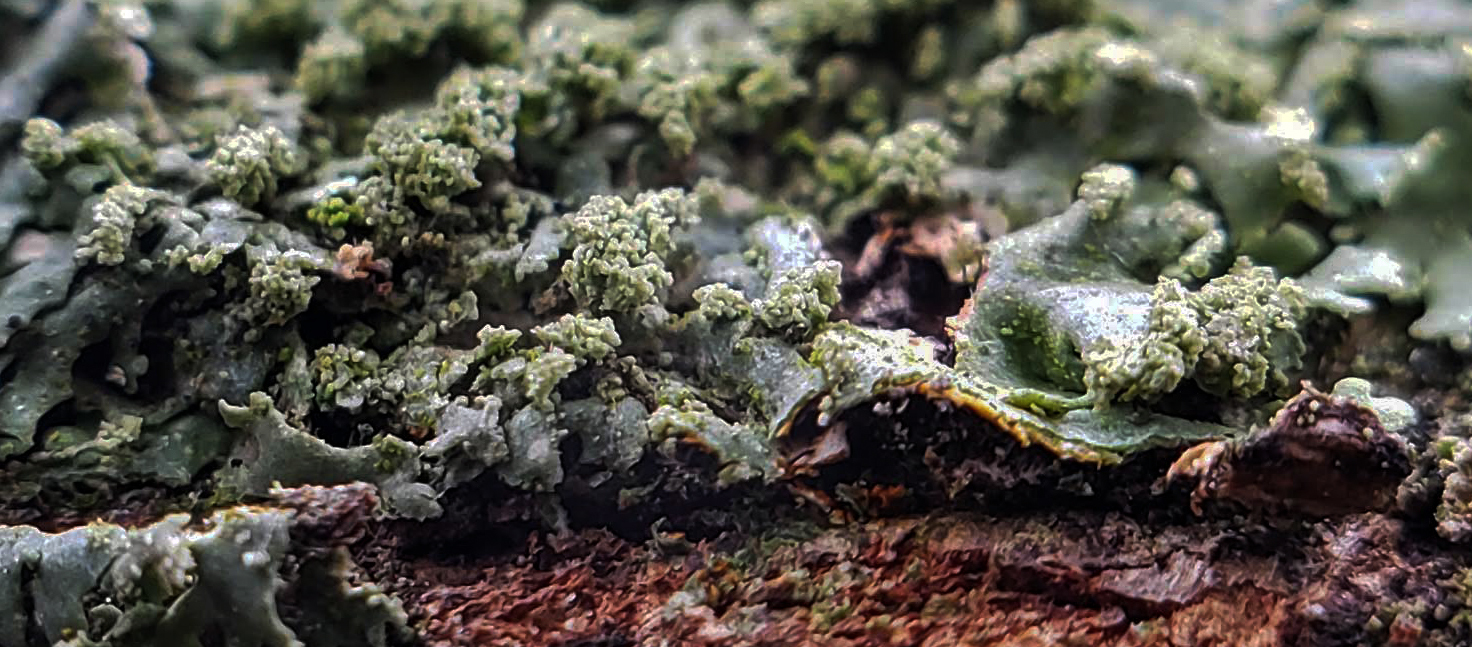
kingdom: Fungi
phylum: Ascomycota
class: Lecanoromycetes
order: Caliciales
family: Physciaceae
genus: Phaeophyscia
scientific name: Phaeophyscia rubropulchra
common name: Orange-cored shadow lichen
